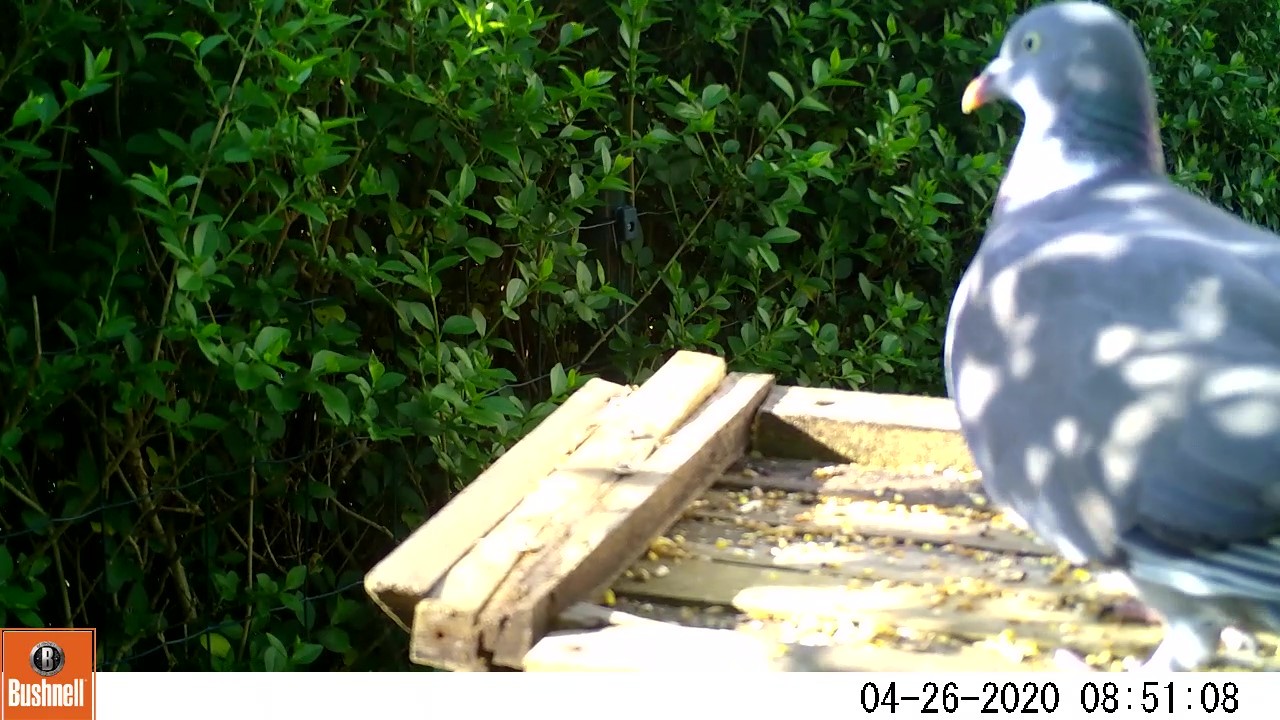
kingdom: Animalia
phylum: Chordata
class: Aves
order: Columbiformes
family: Columbidae
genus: Columba
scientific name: Columba palumbus
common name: Common wood pigeon
